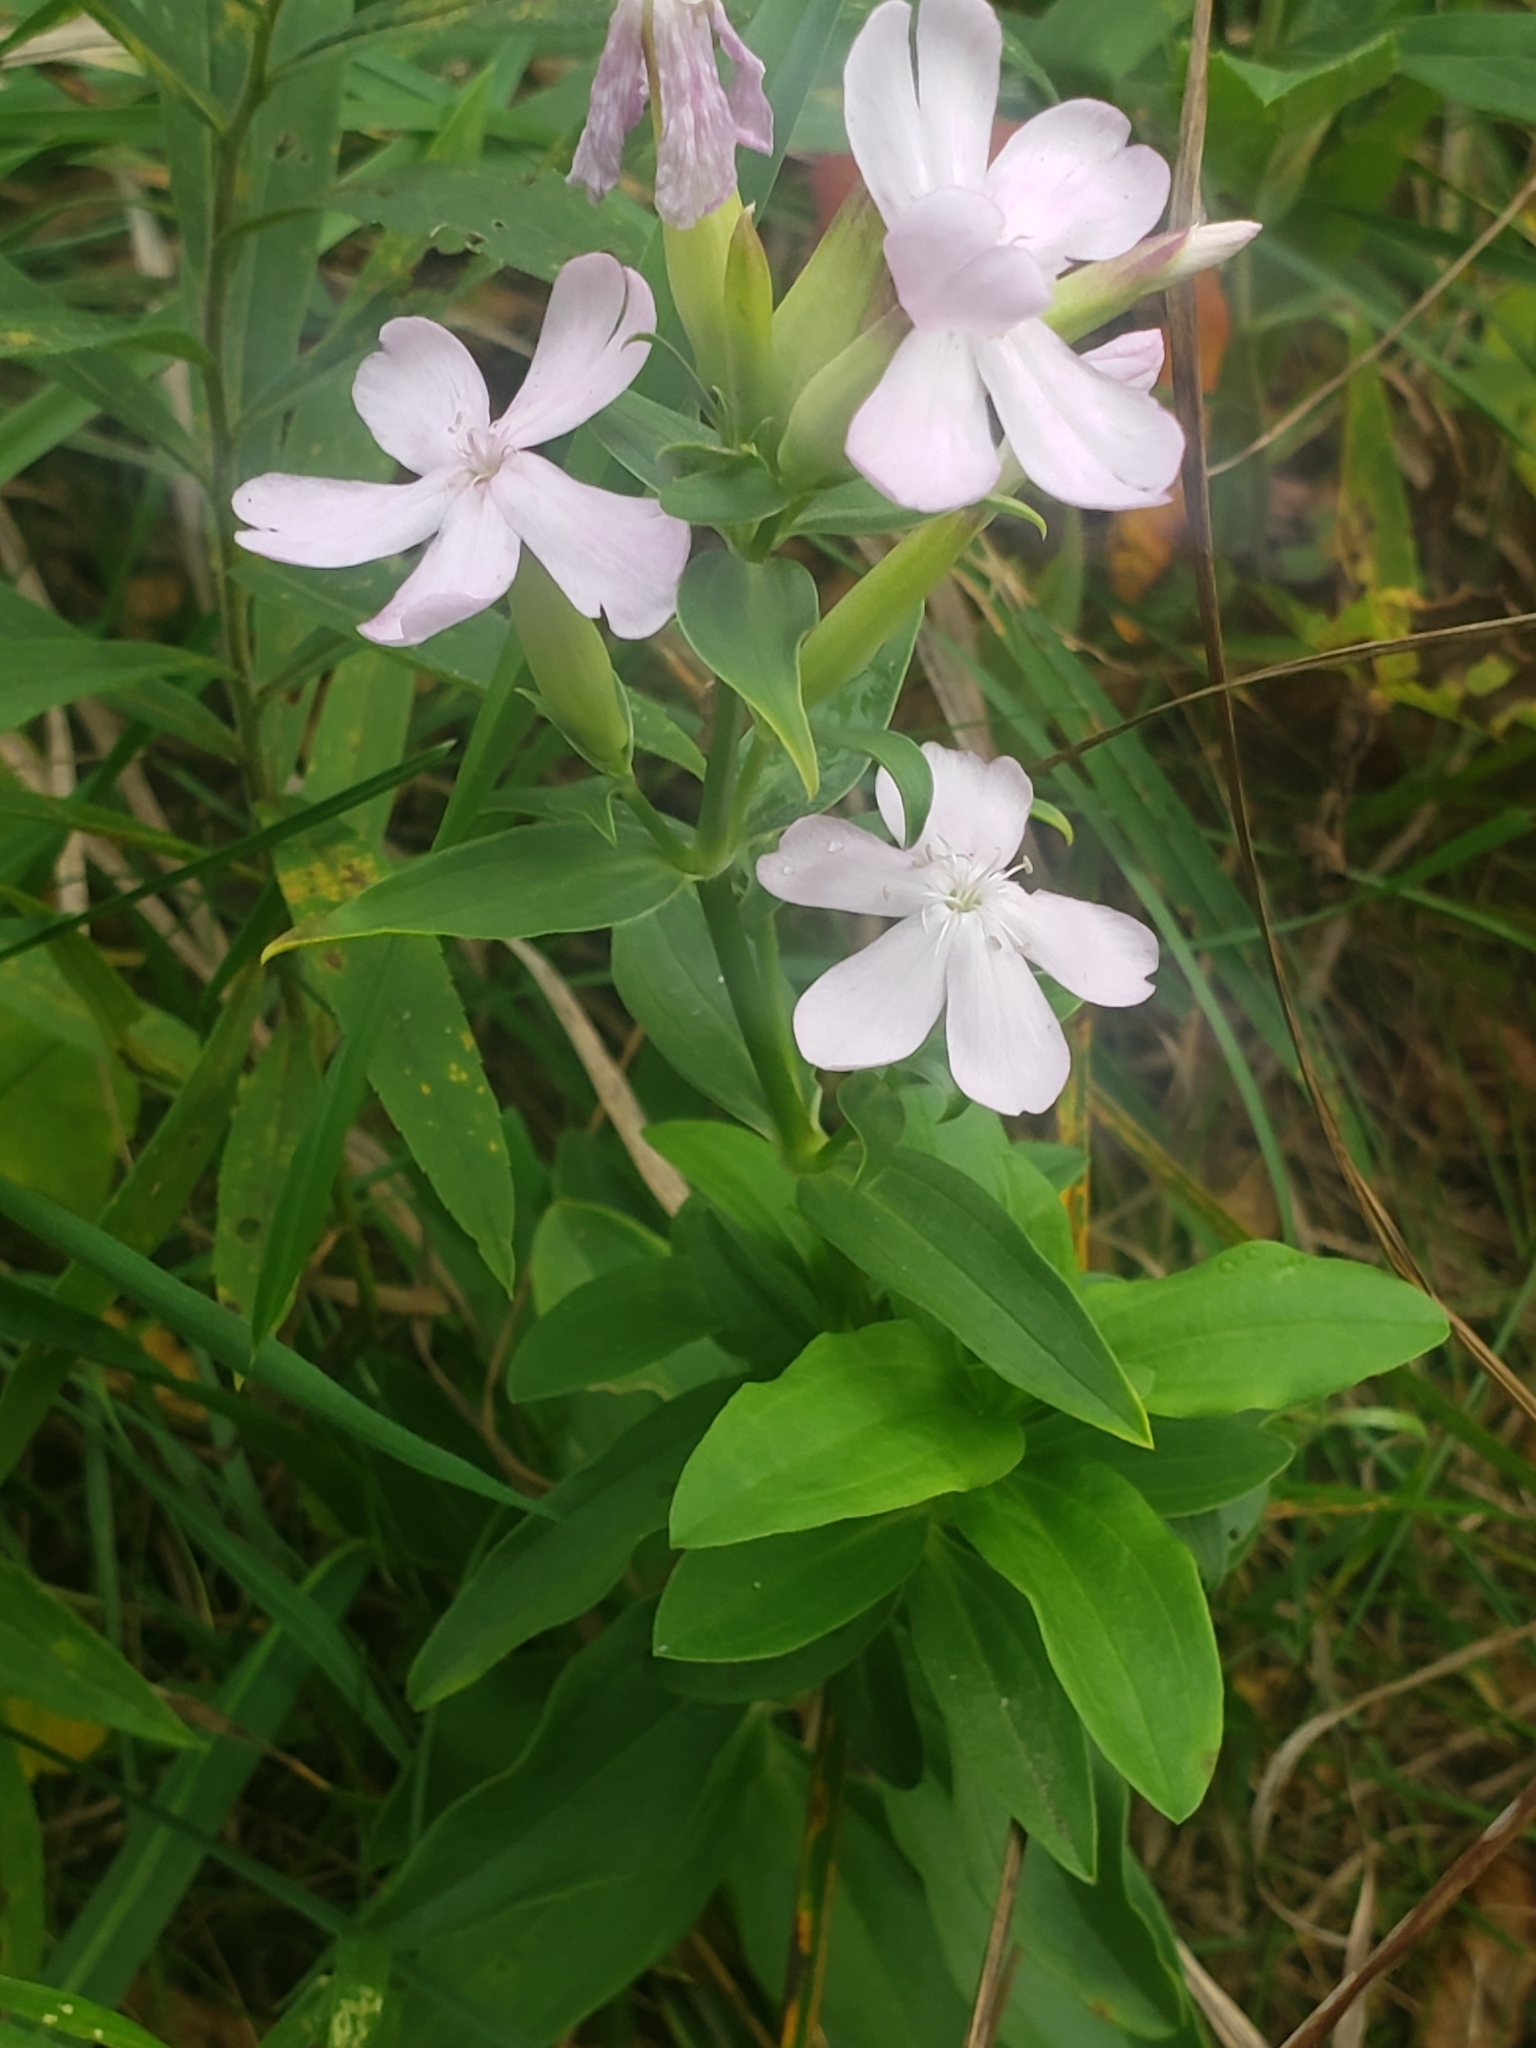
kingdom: Plantae
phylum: Tracheophyta
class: Magnoliopsida
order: Caryophyllales
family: Caryophyllaceae
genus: Saponaria
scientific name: Saponaria officinalis
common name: Soapwort
